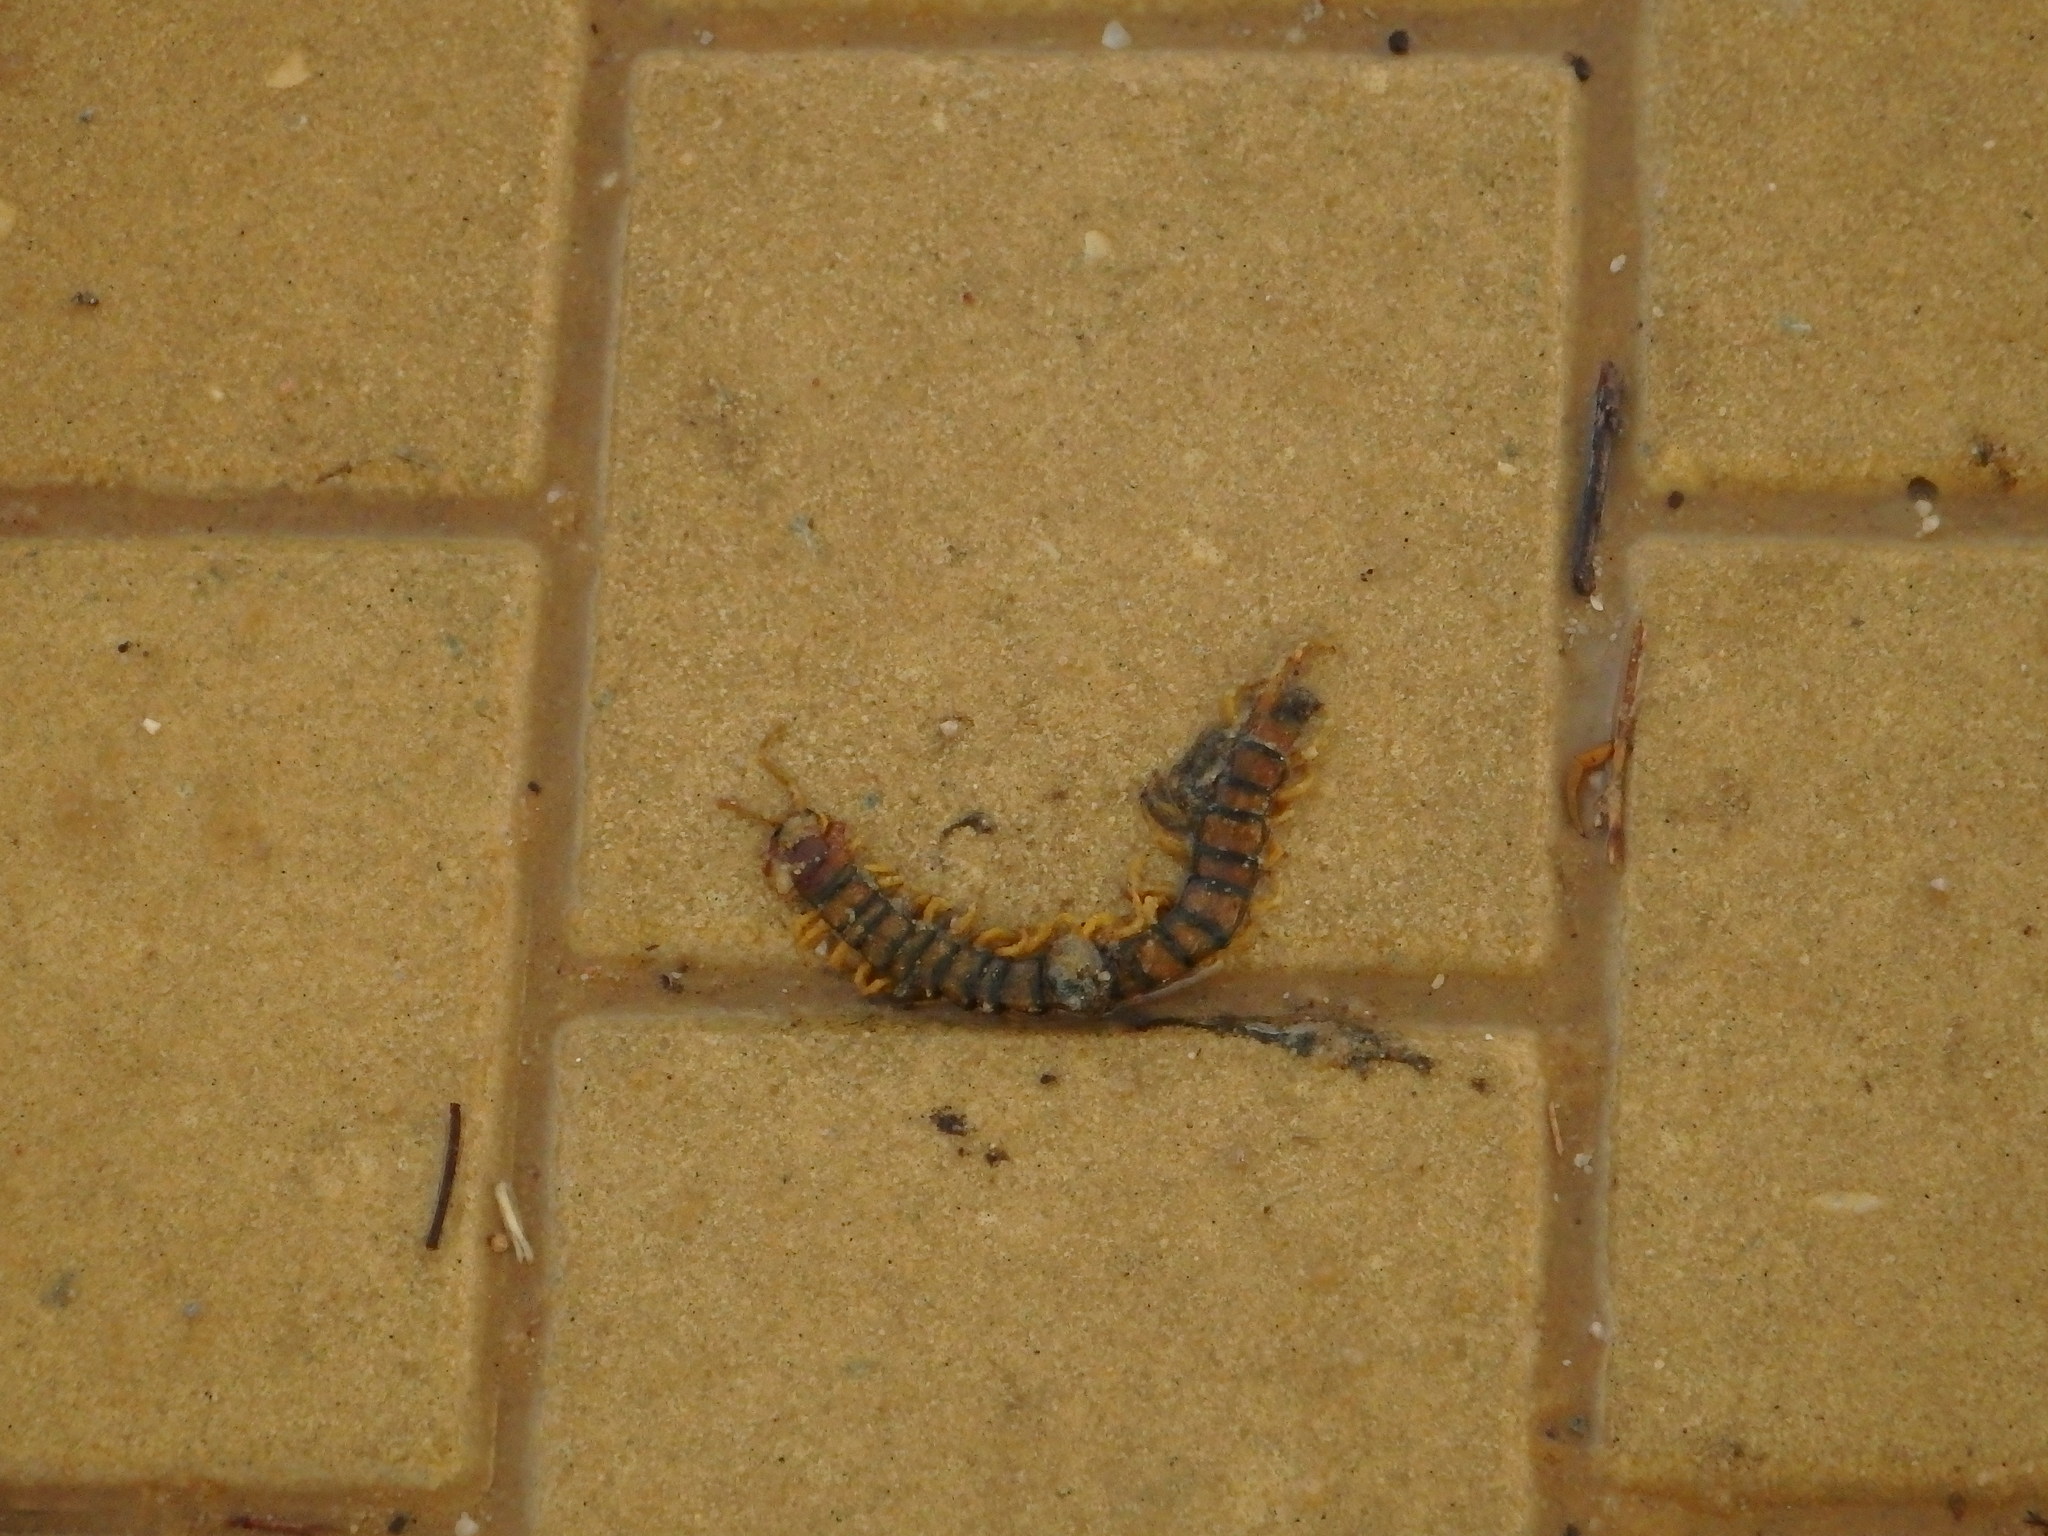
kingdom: Animalia
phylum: Arthropoda
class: Chilopoda
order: Scolopendromorpha
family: Scolopendridae
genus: Scolopendra
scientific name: Scolopendra cingulata
